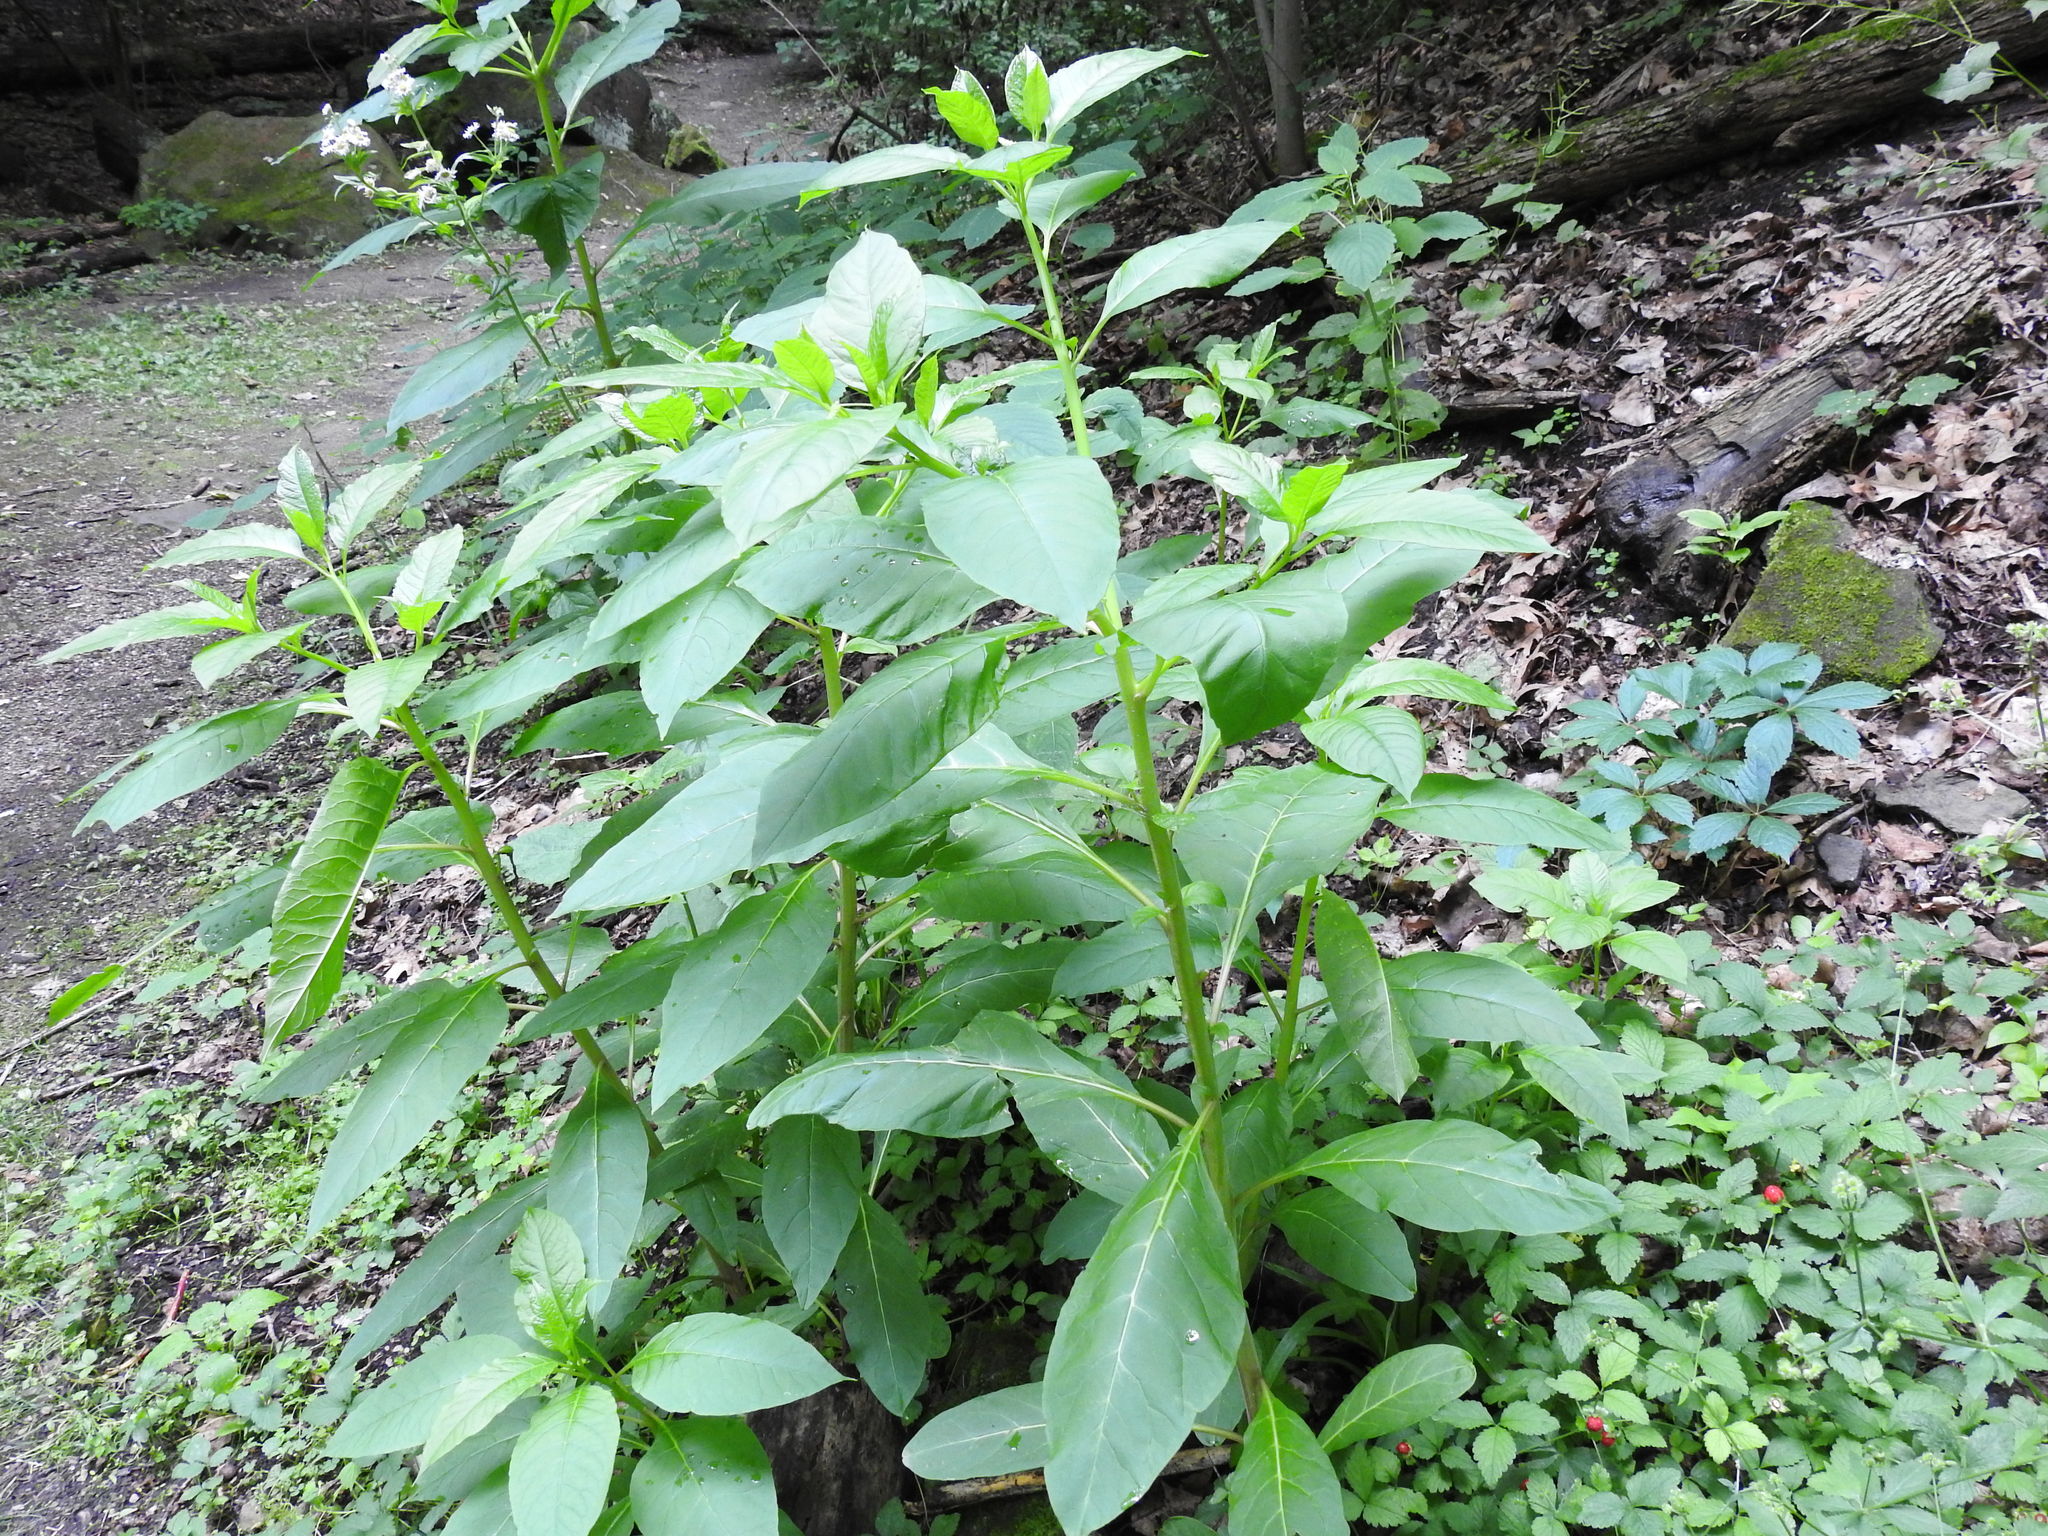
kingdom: Plantae
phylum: Tracheophyta
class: Magnoliopsida
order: Caryophyllales
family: Phytolaccaceae
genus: Phytolacca
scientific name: Phytolacca americana
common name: American pokeweed
